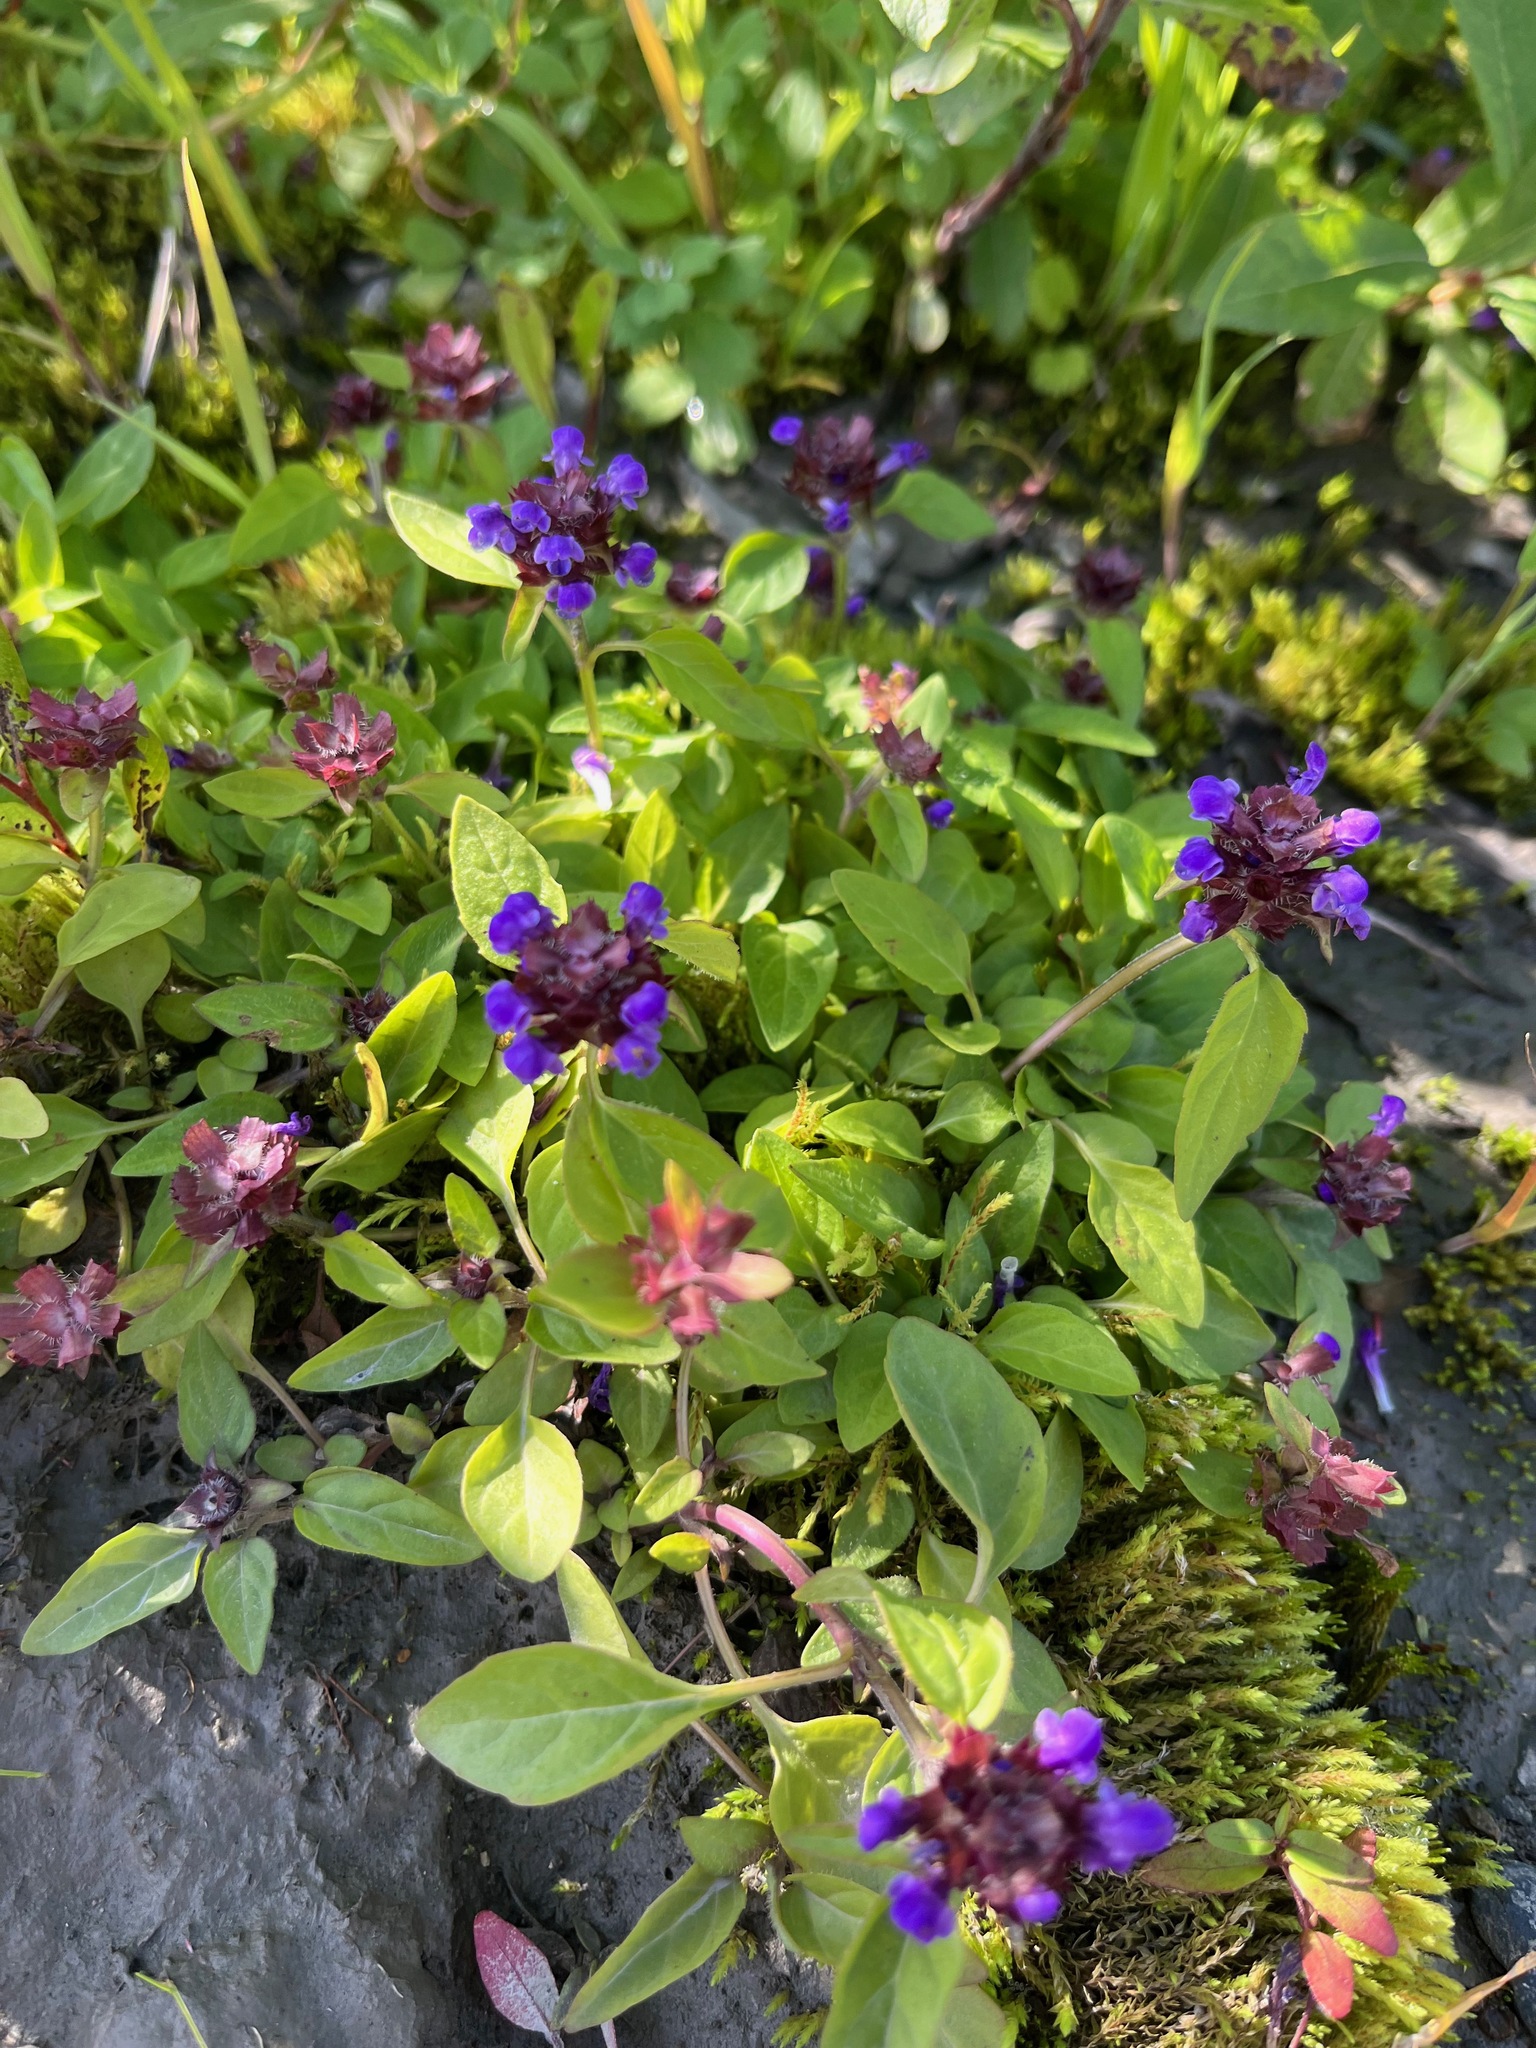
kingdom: Plantae
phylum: Tracheophyta
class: Magnoliopsida
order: Lamiales
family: Lamiaceae
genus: Prunella
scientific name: Prunella vulgaris
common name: Heal-all
